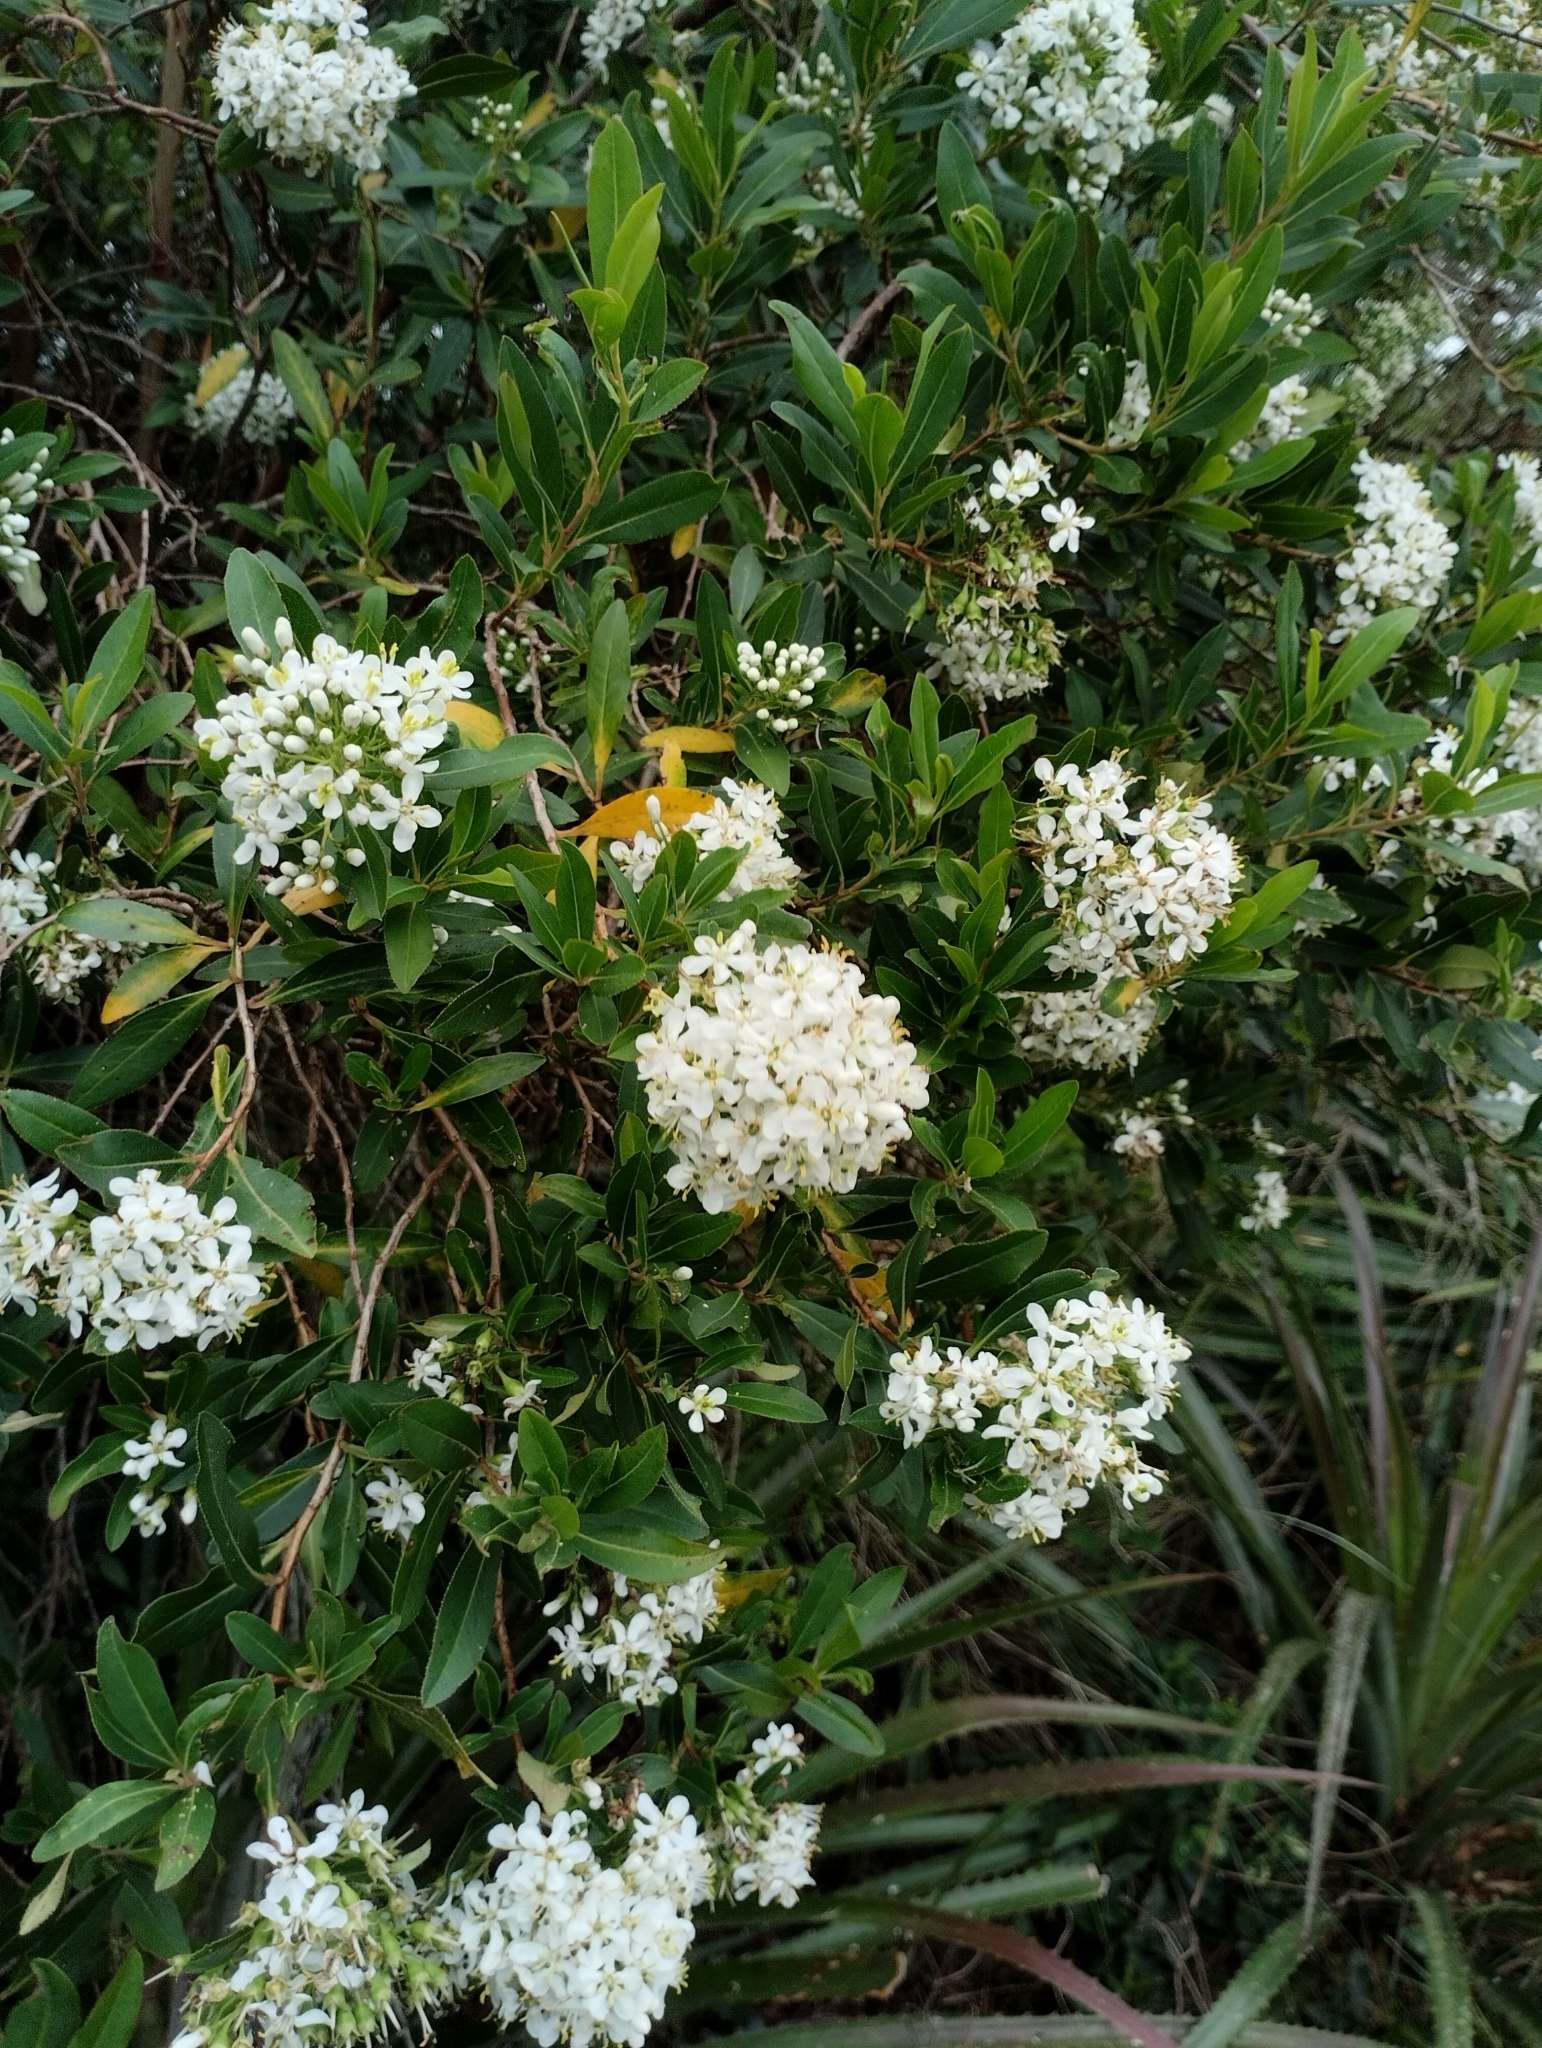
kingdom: Plantae
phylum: Tracheophyta
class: Magnoliopsida
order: Escalloniales
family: Escalloniaceae
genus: Escallonia
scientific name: Escallonia bifida
